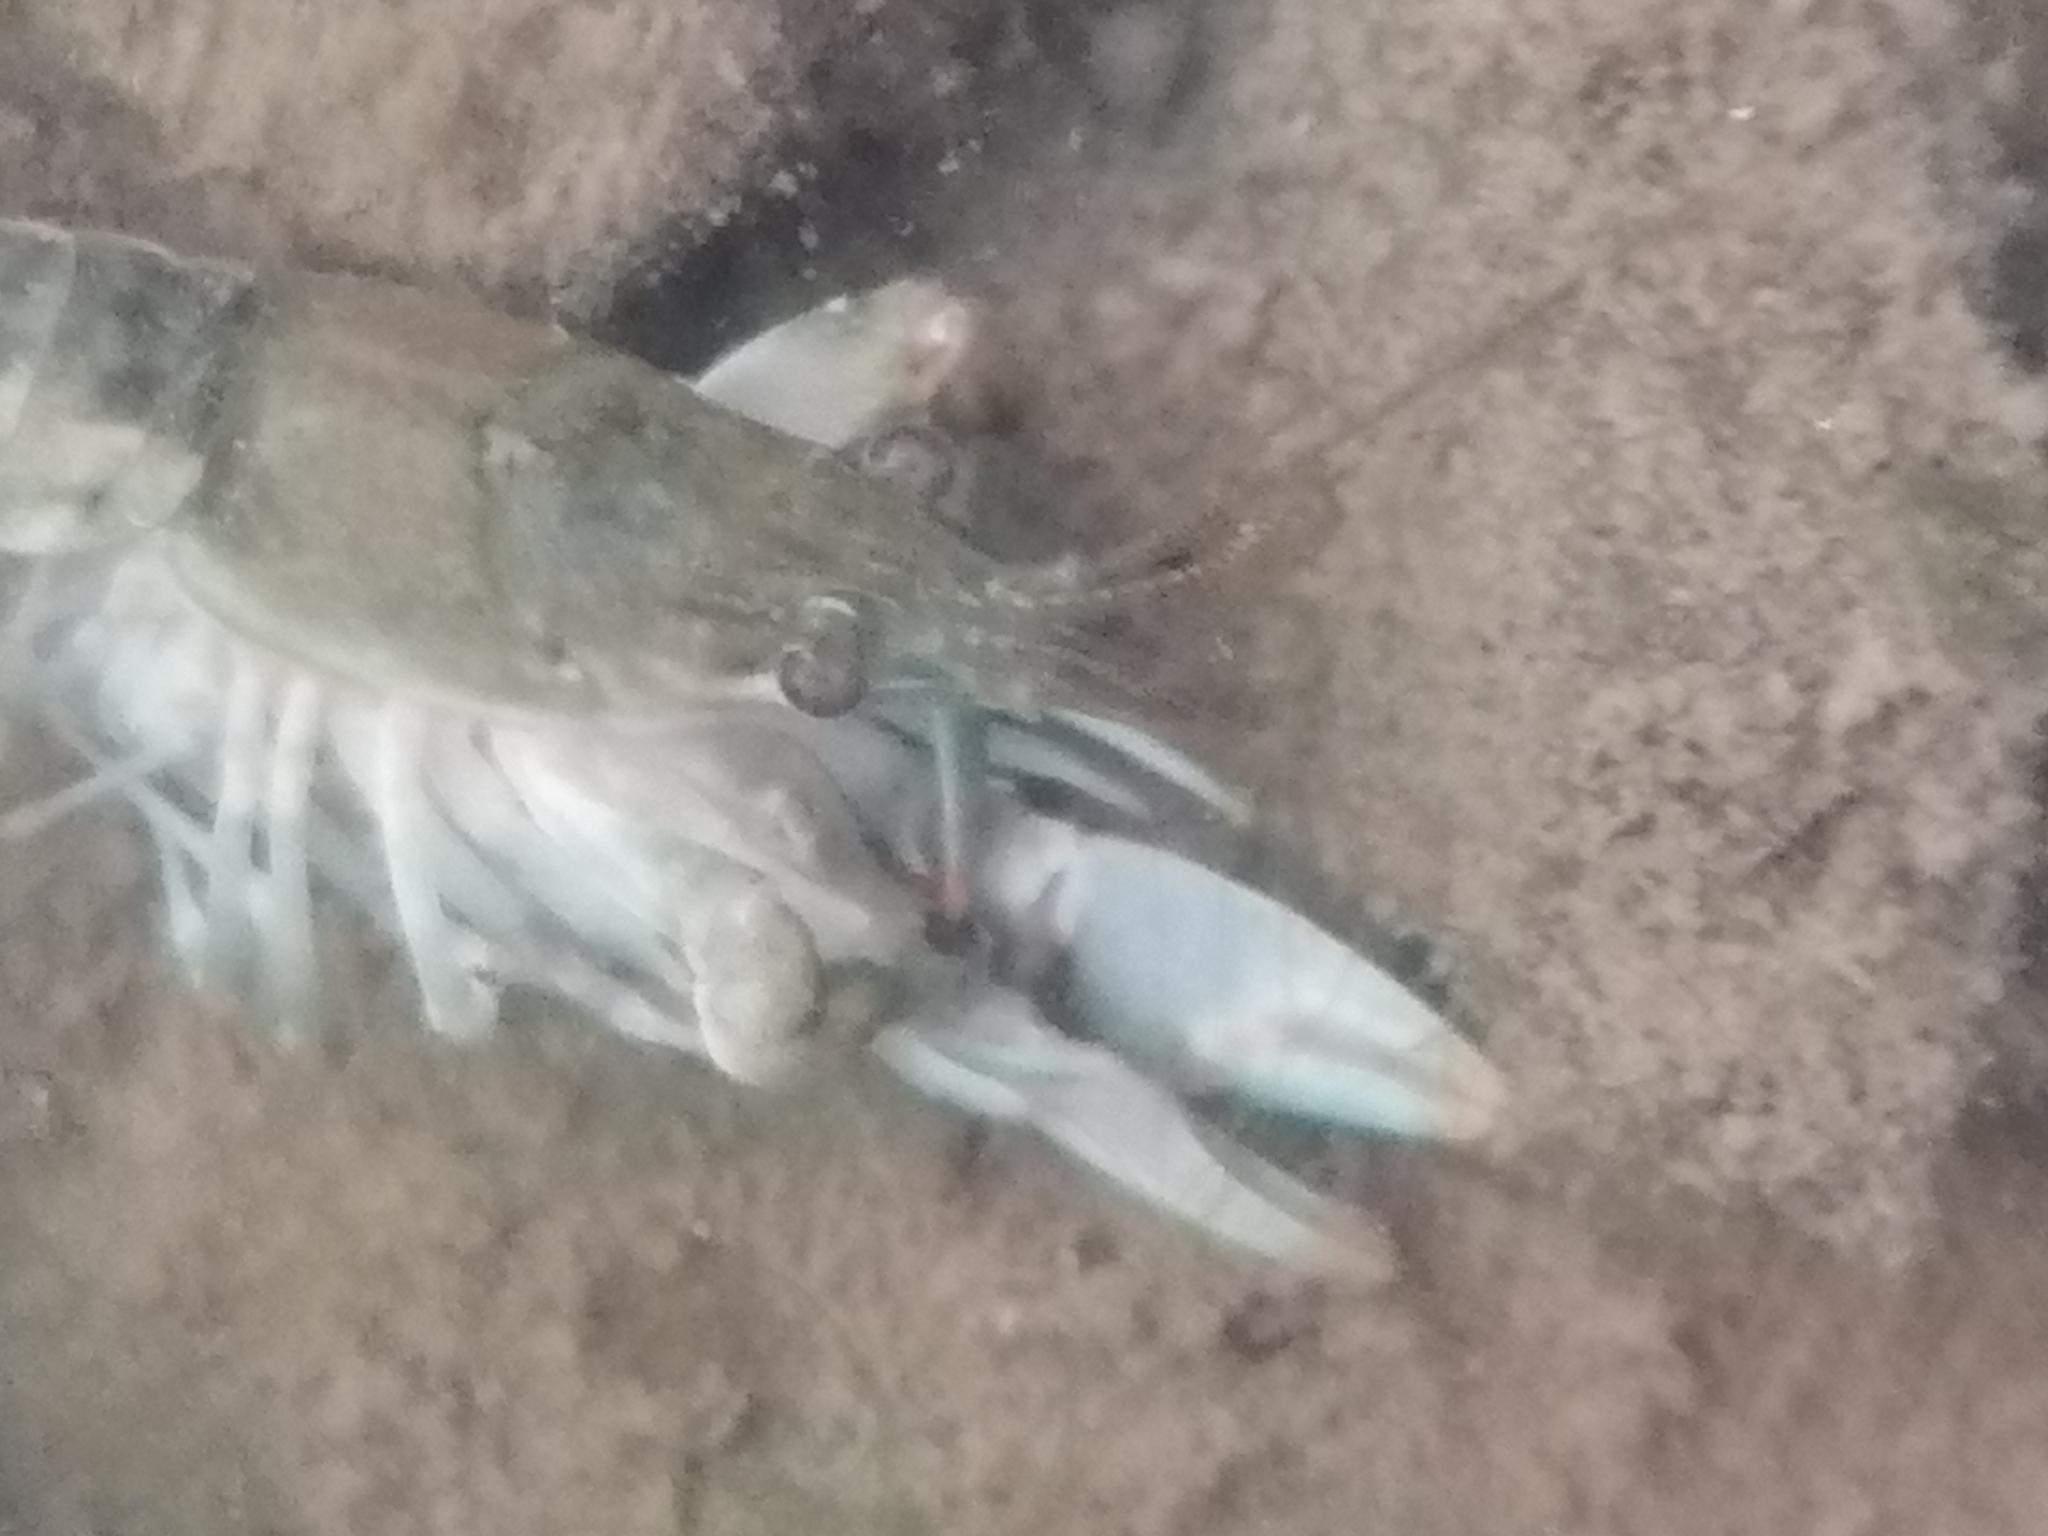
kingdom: Animalia
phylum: Arthropoda
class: Malacostraca
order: Decapoda
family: Cambaridae
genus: Faxonius
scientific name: Faxonius propinquus
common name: Northern clearwater crayfish
